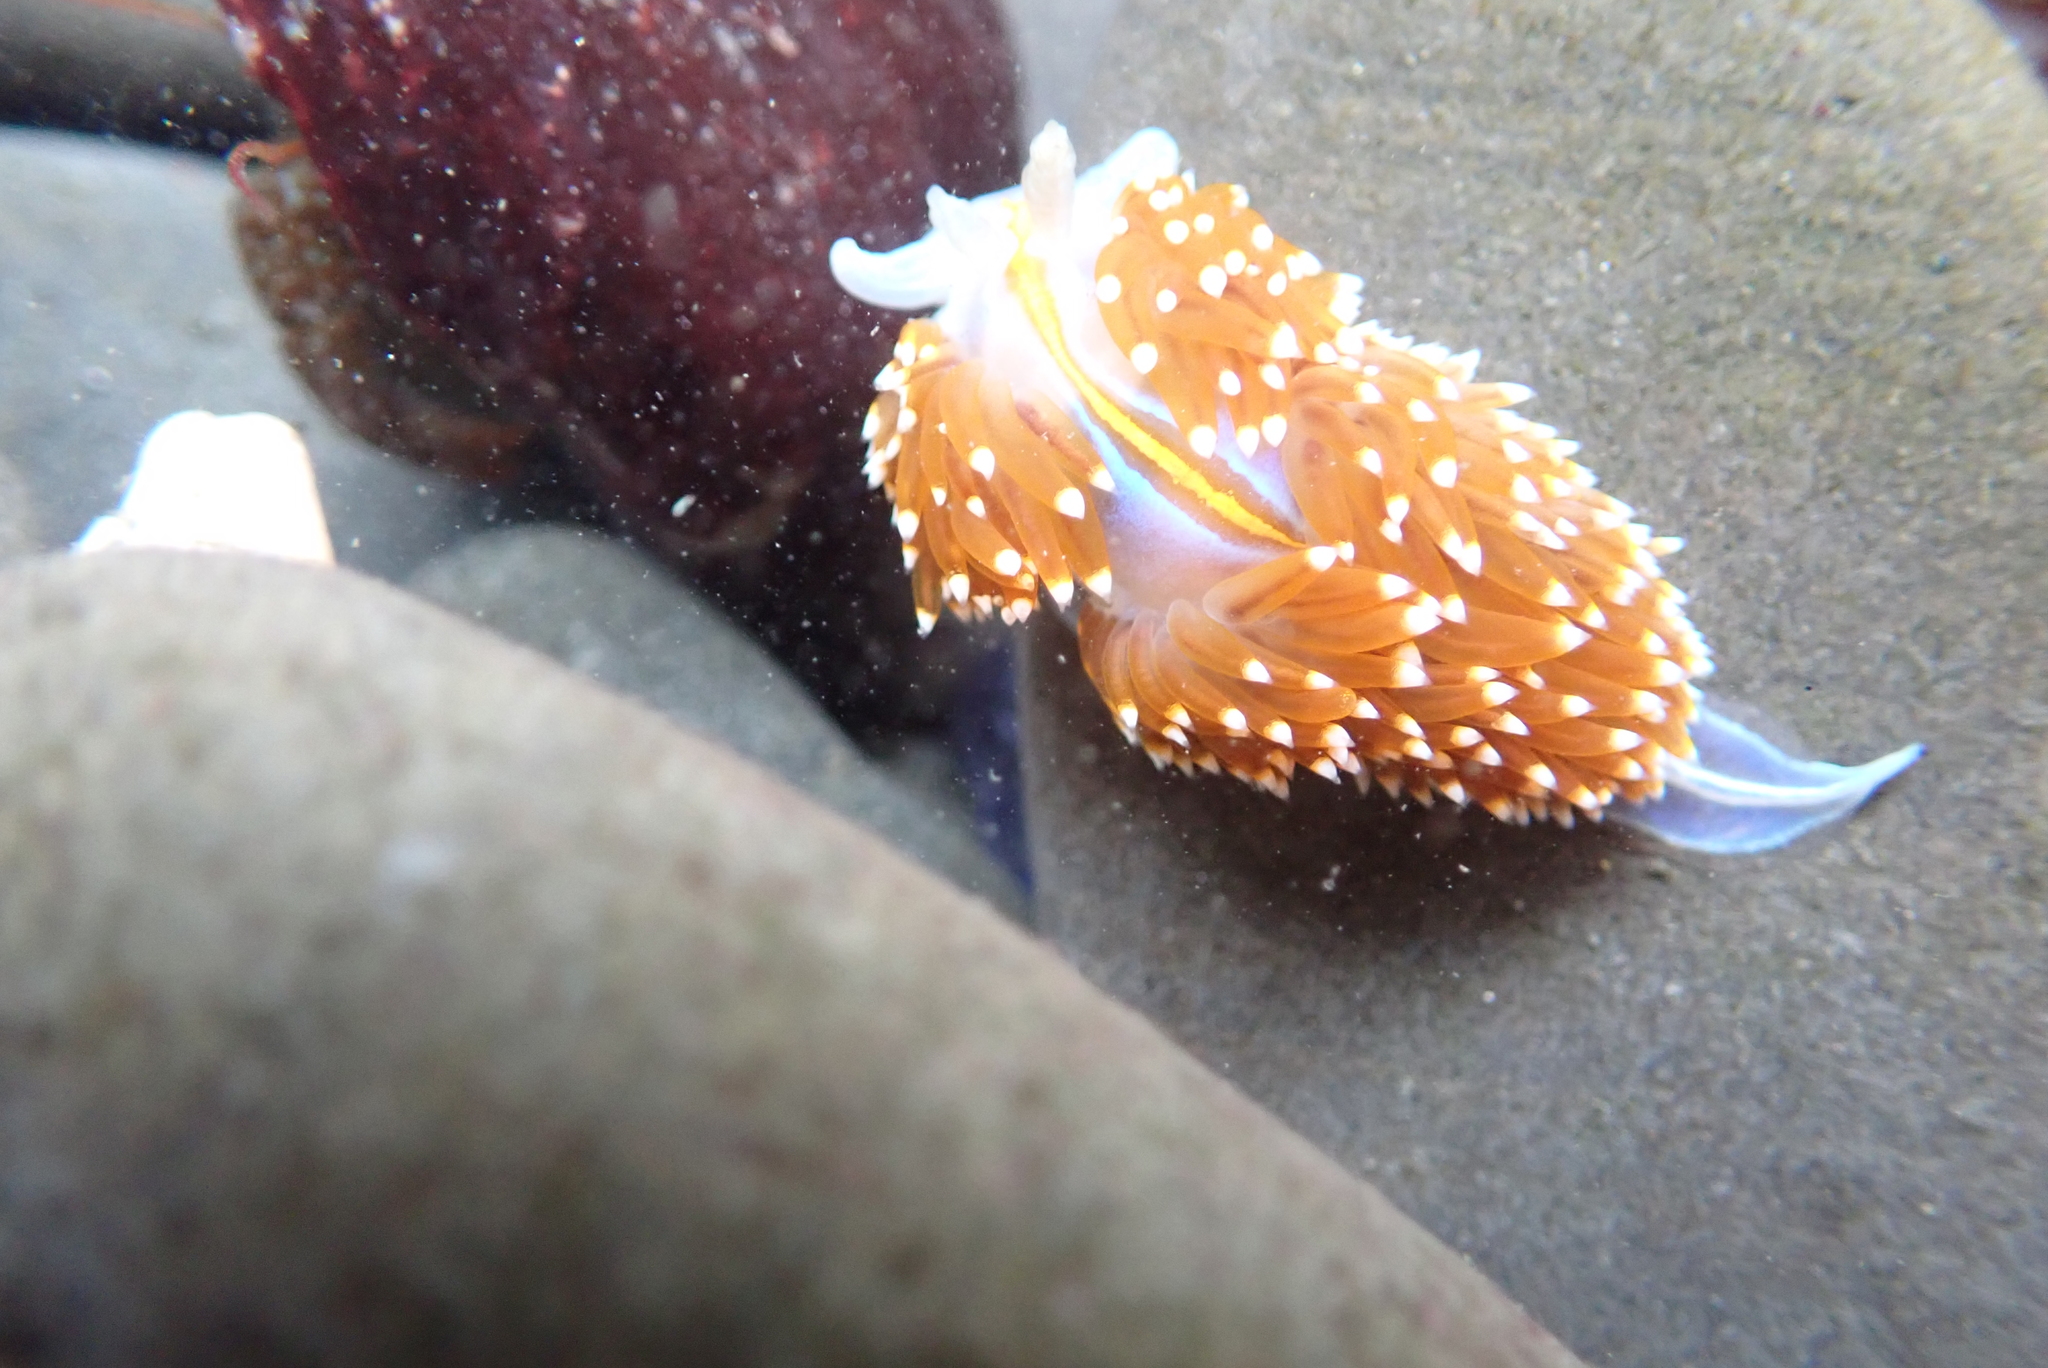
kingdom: Animalia
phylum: Mollusca
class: Gastropoda
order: Nudibranchia
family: Myrrhinidae
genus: Hermissenda
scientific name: Hermissenda opalescens
